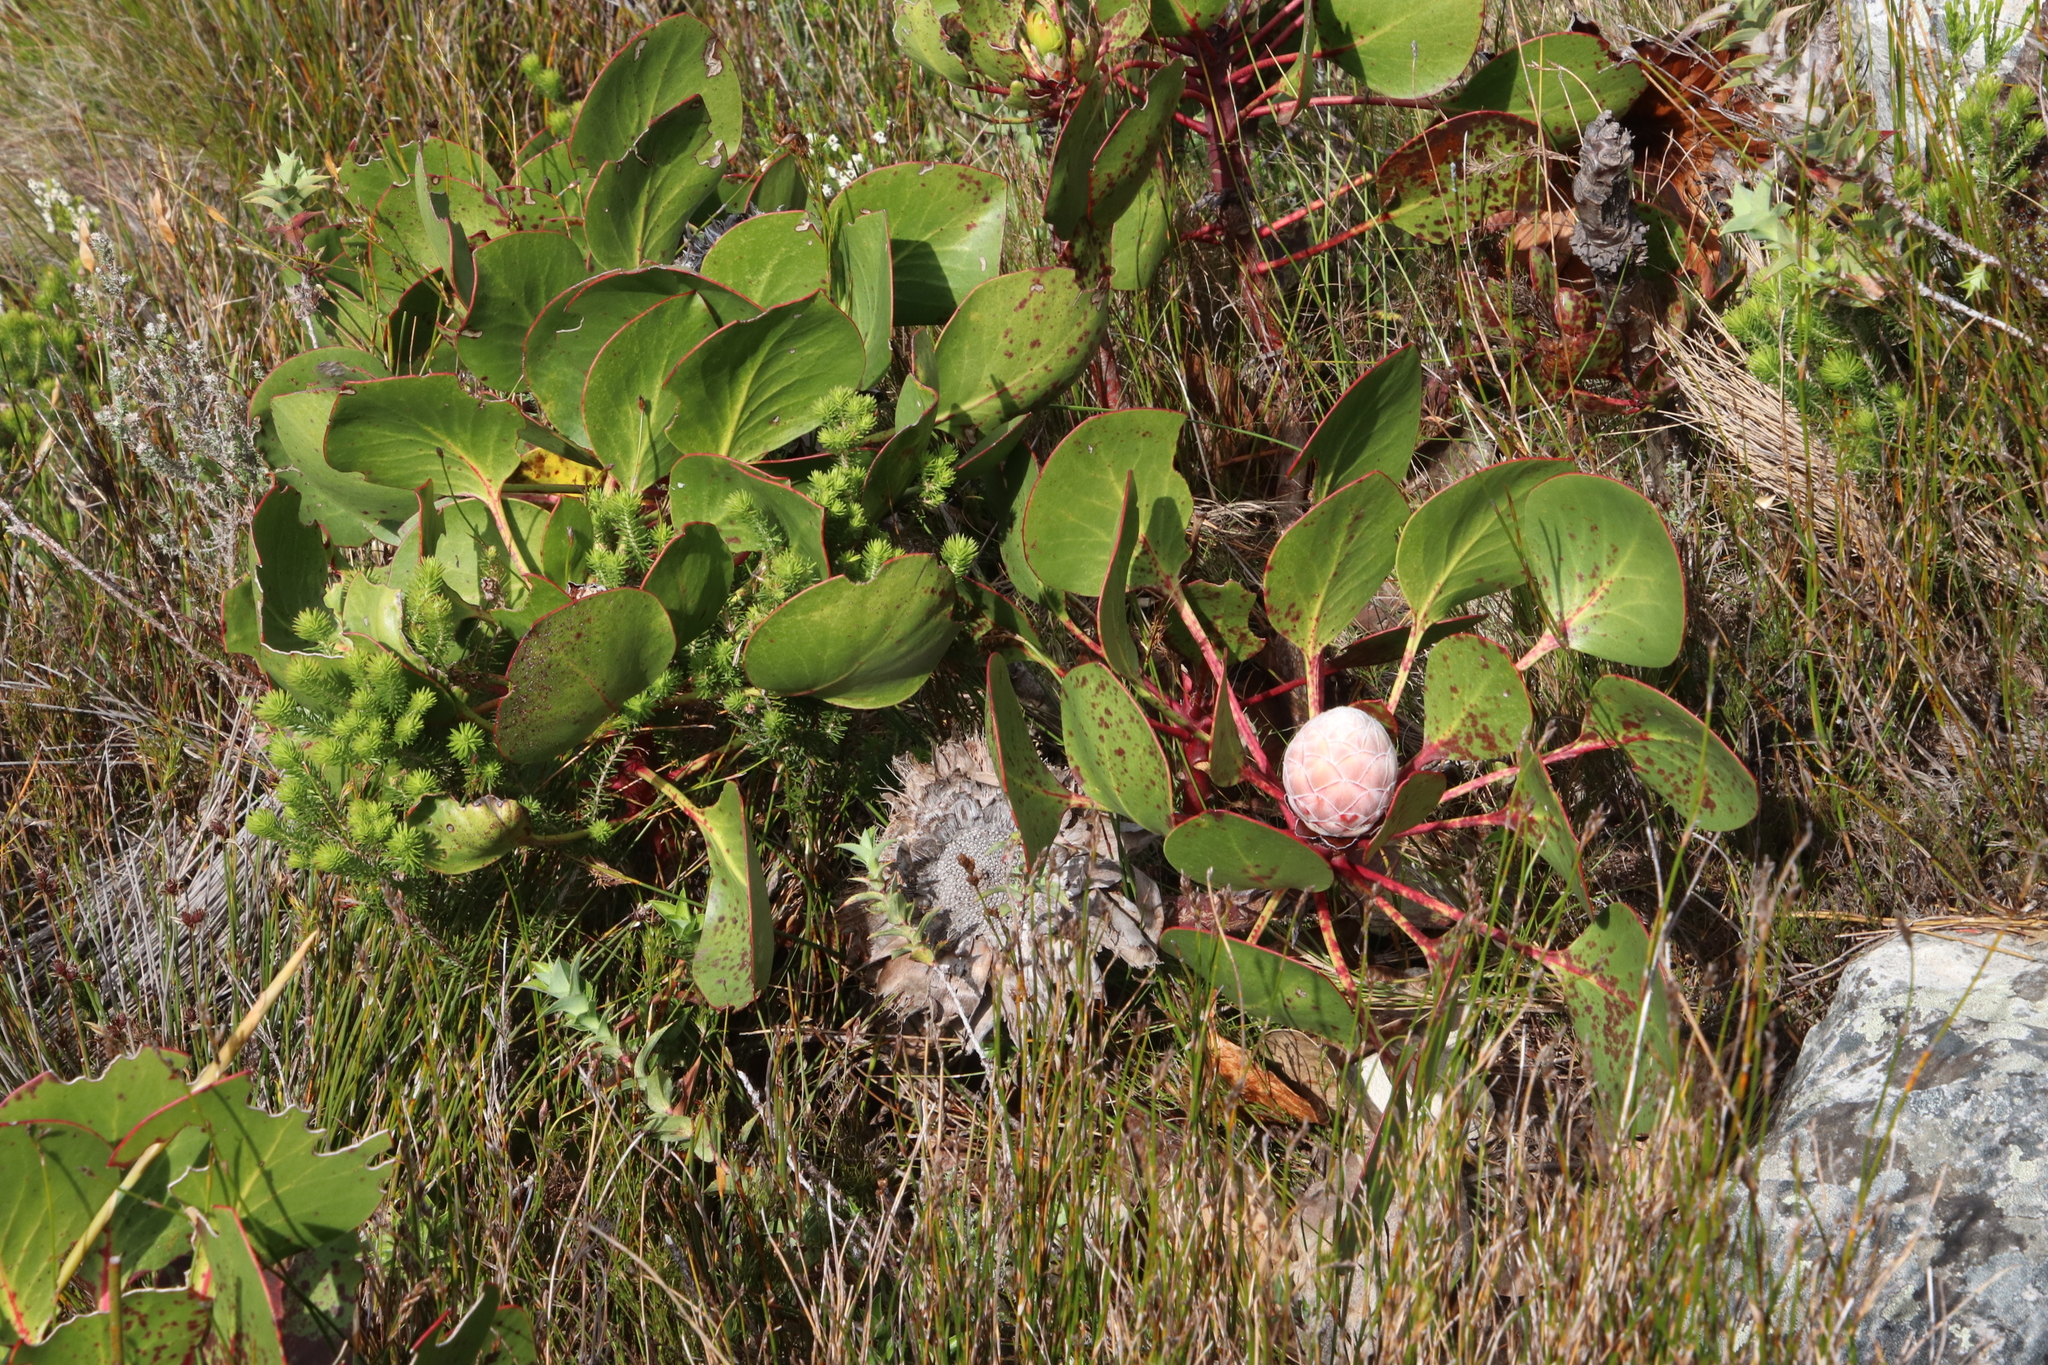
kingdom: Plantae
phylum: Tracheophyta
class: Magnoliopsida
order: Proteales
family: Proteaceae
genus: Protea
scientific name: Protea cynaroides
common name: King protea
